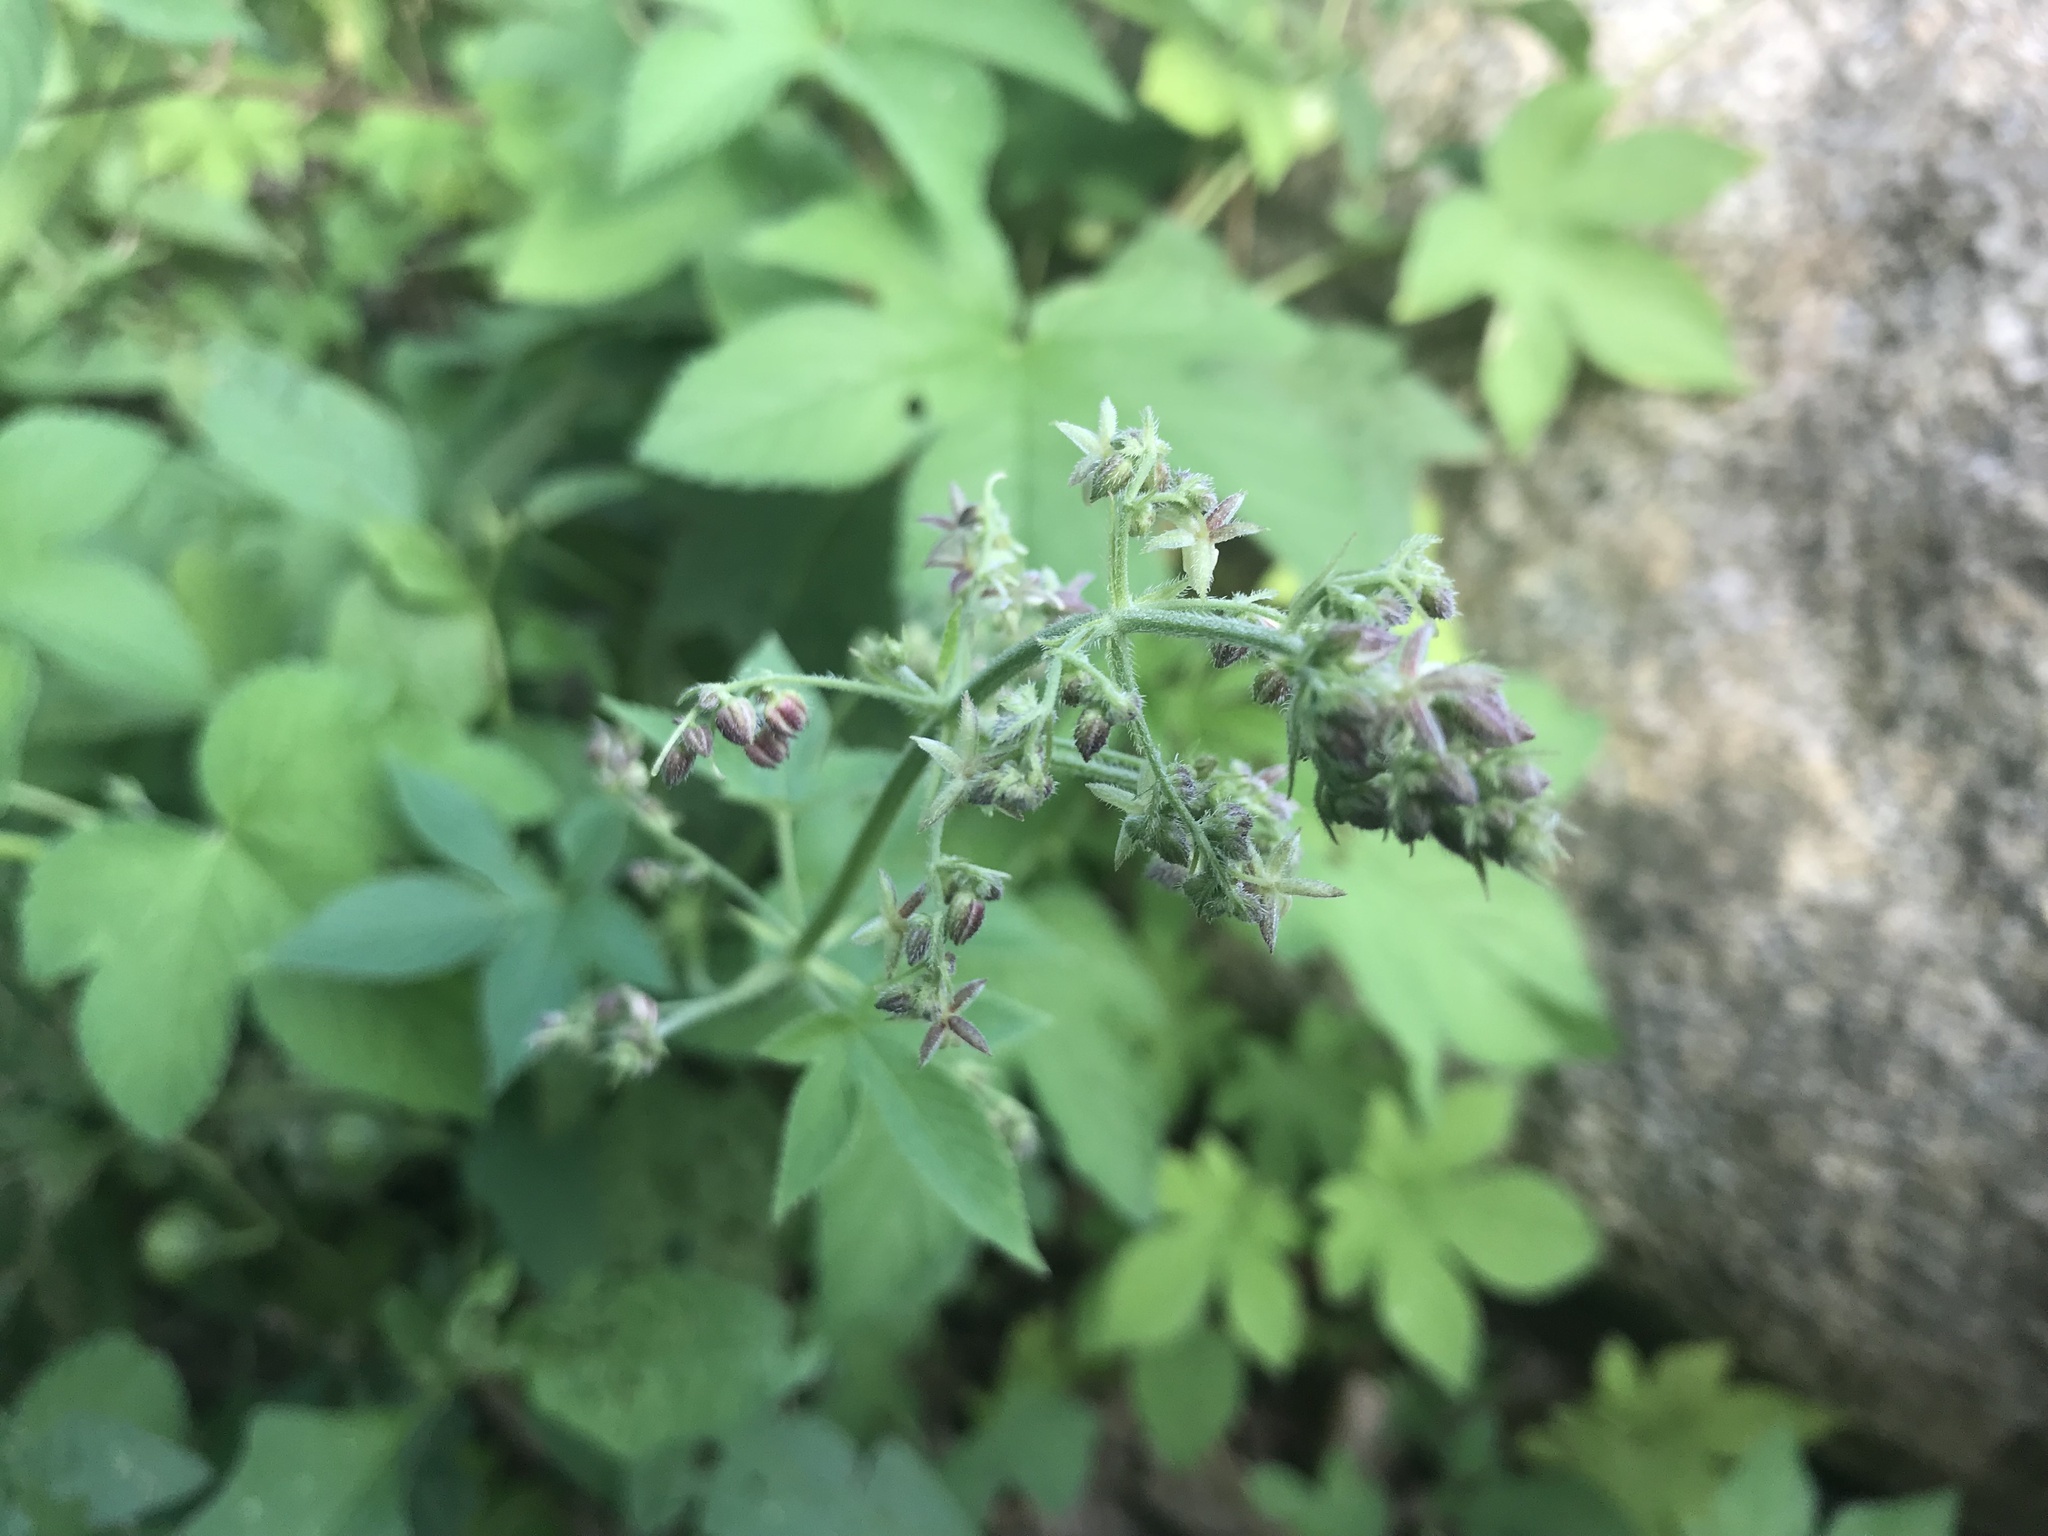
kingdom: Plantae
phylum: Tracheophyta
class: Magnoliopsida
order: Rosales
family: Cannabaceae
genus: Humulus
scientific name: Humulus scandens
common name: Japanese hop
